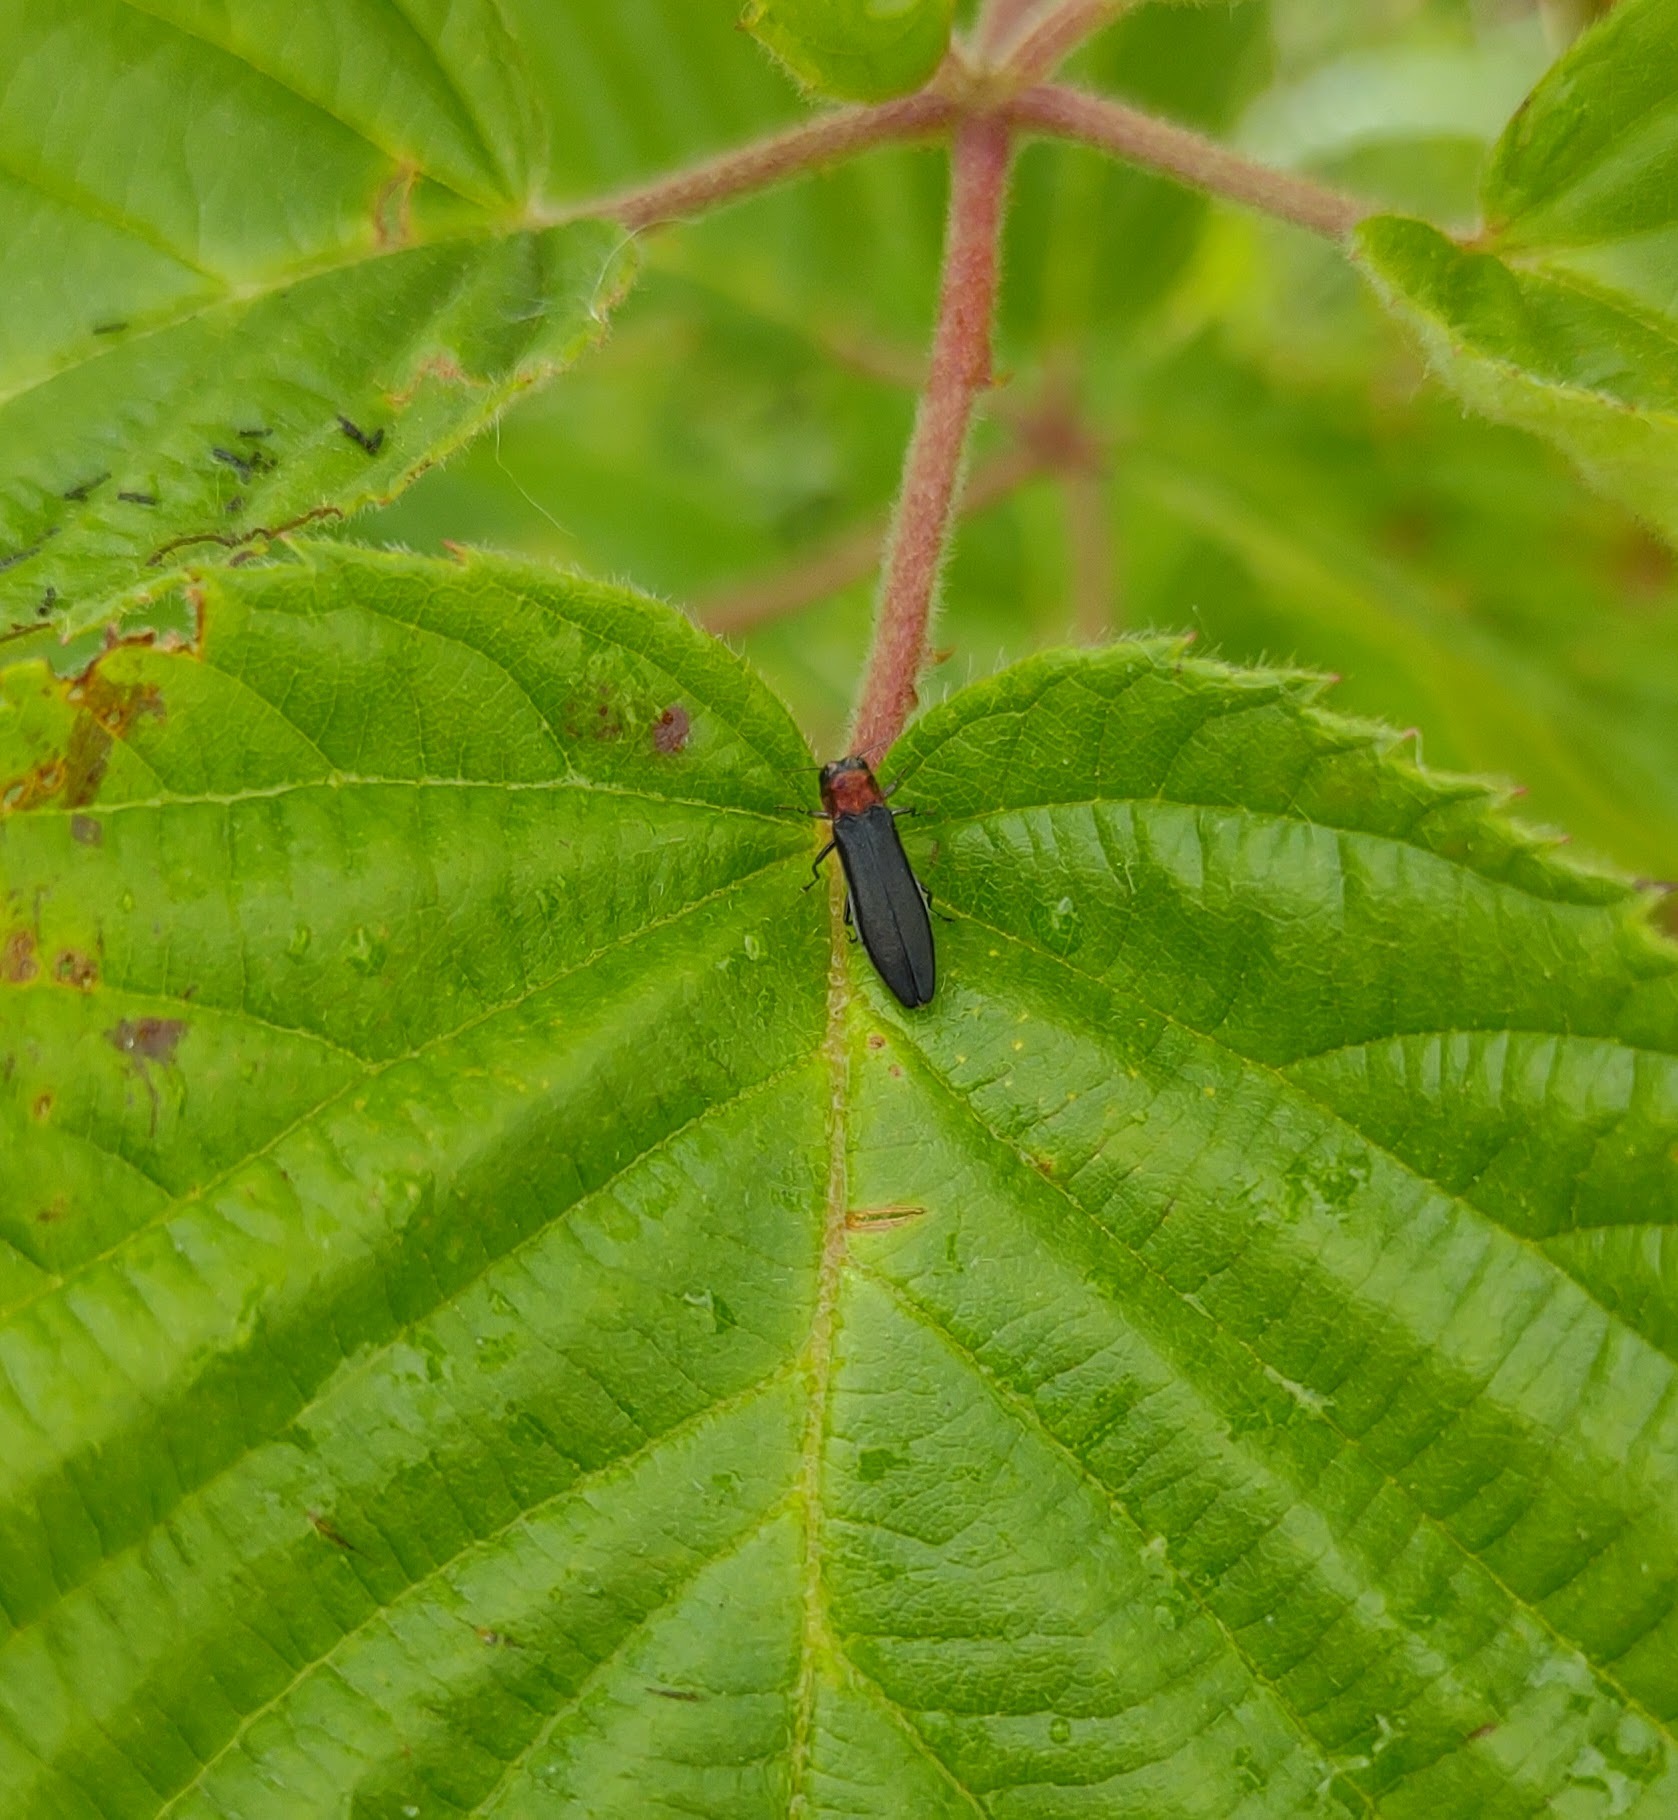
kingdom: Animalia
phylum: Arthropoda
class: Insecta
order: Coleoptera
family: Buprestidae
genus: Agrilus
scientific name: Agrilus ruficollis
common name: Red-necked cane borer beetle
